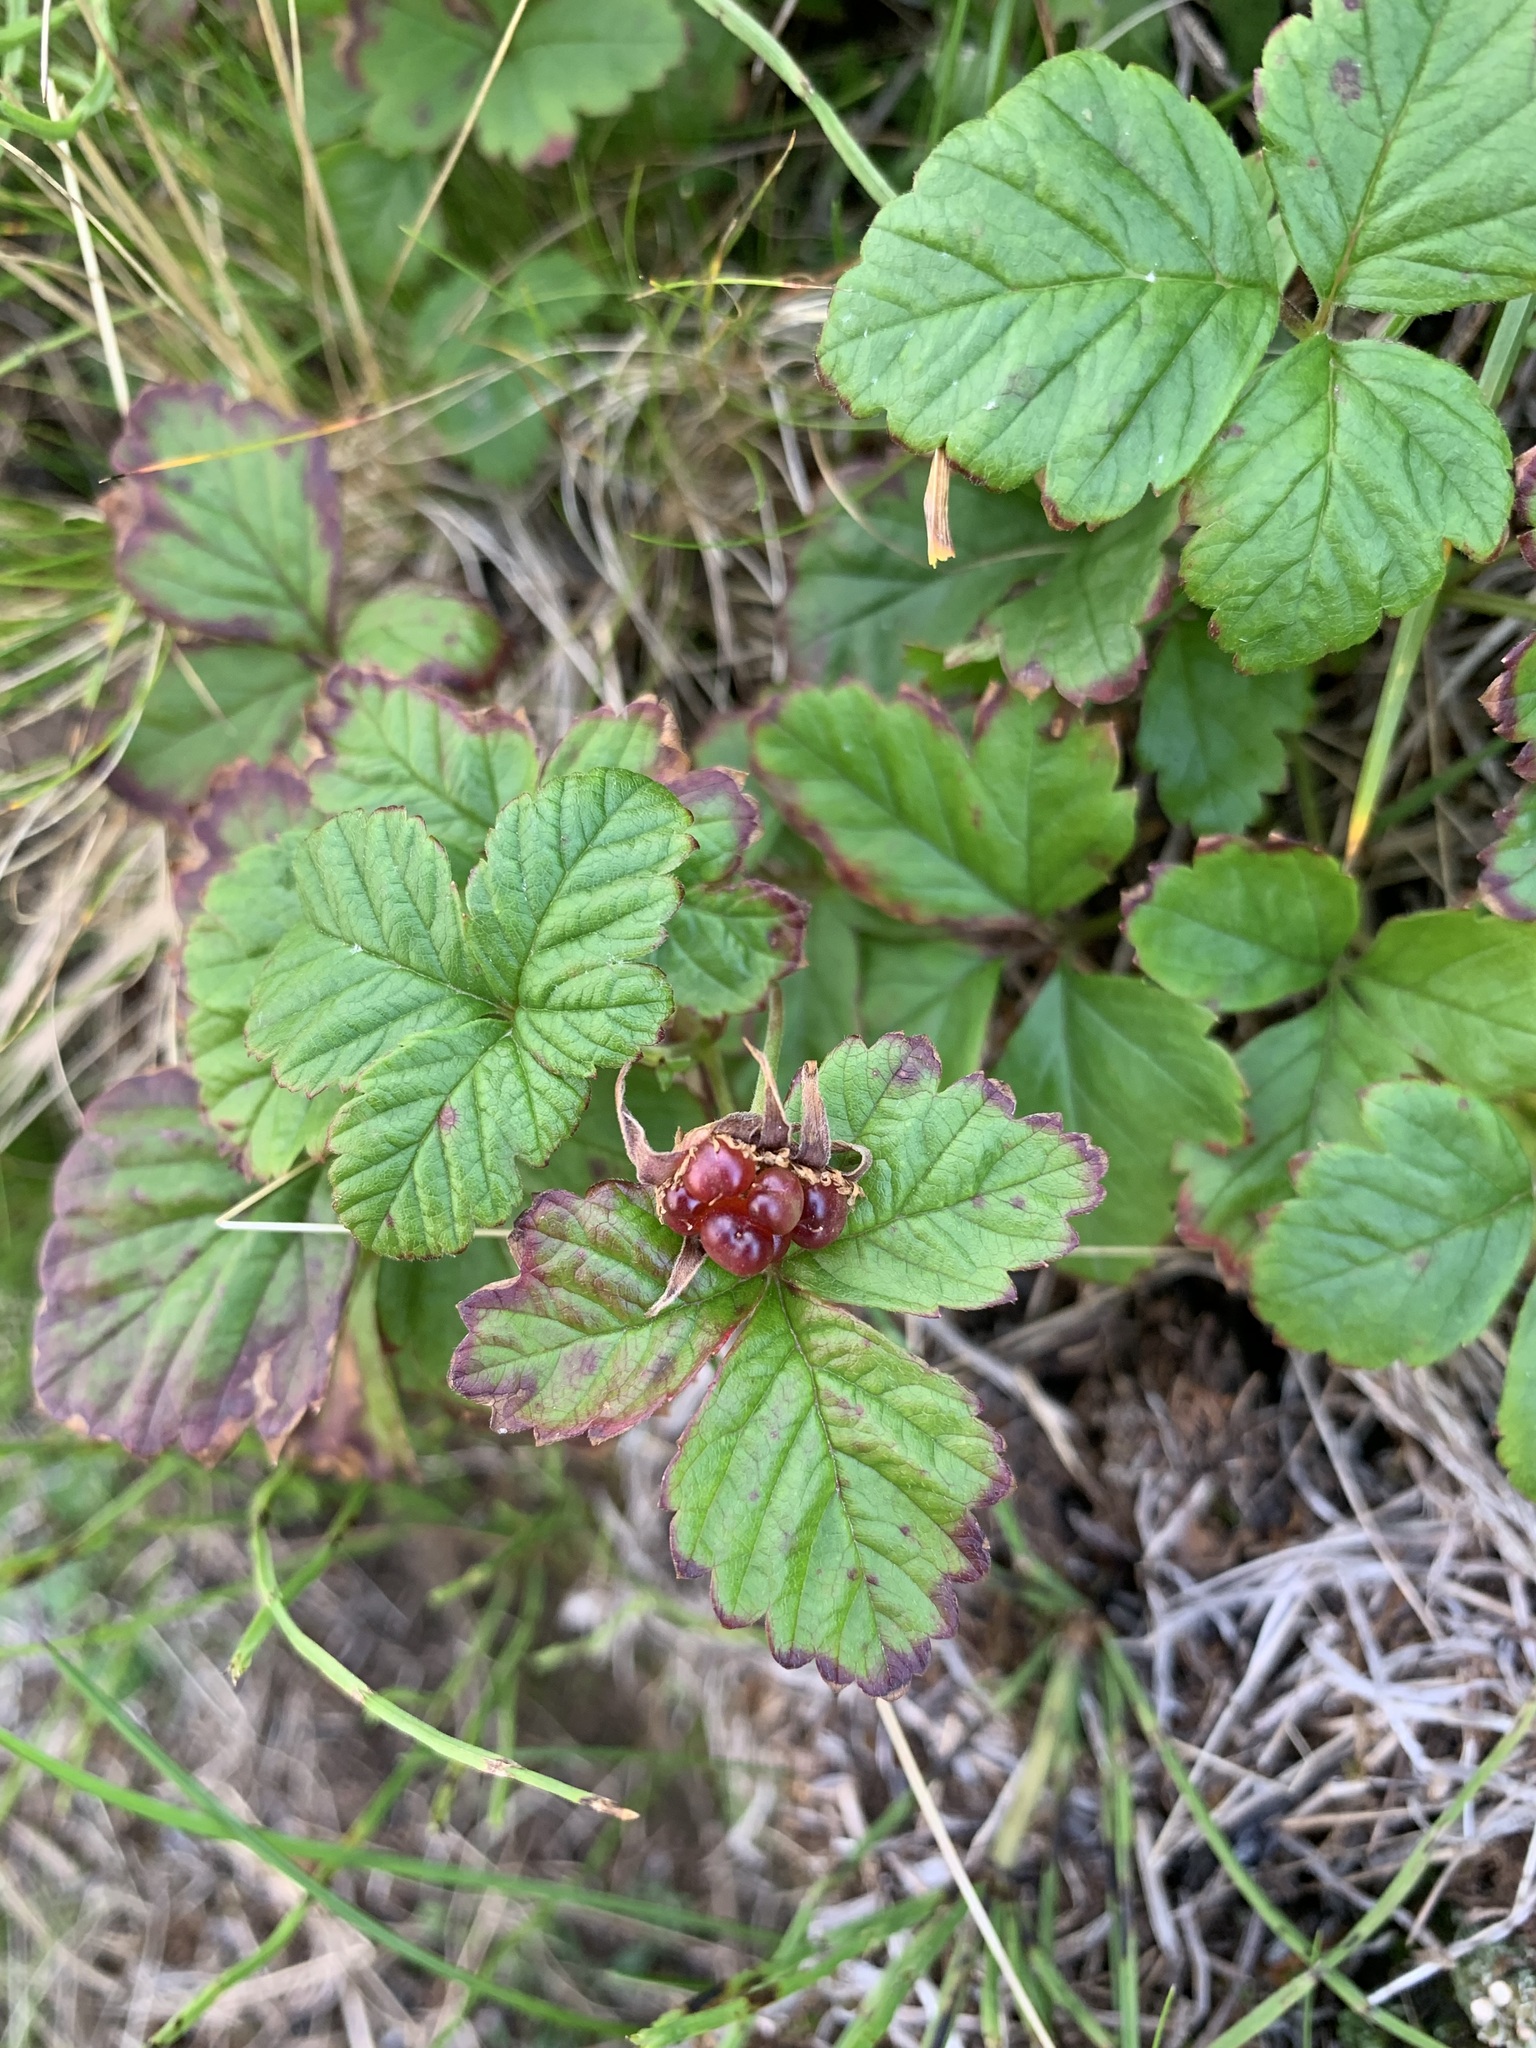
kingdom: Plantae
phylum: Tracheophyta
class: Magnoliopsida
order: Rosales
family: Rosaceae
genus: Rubus
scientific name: Rubus arcticus
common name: Arctic bramble
